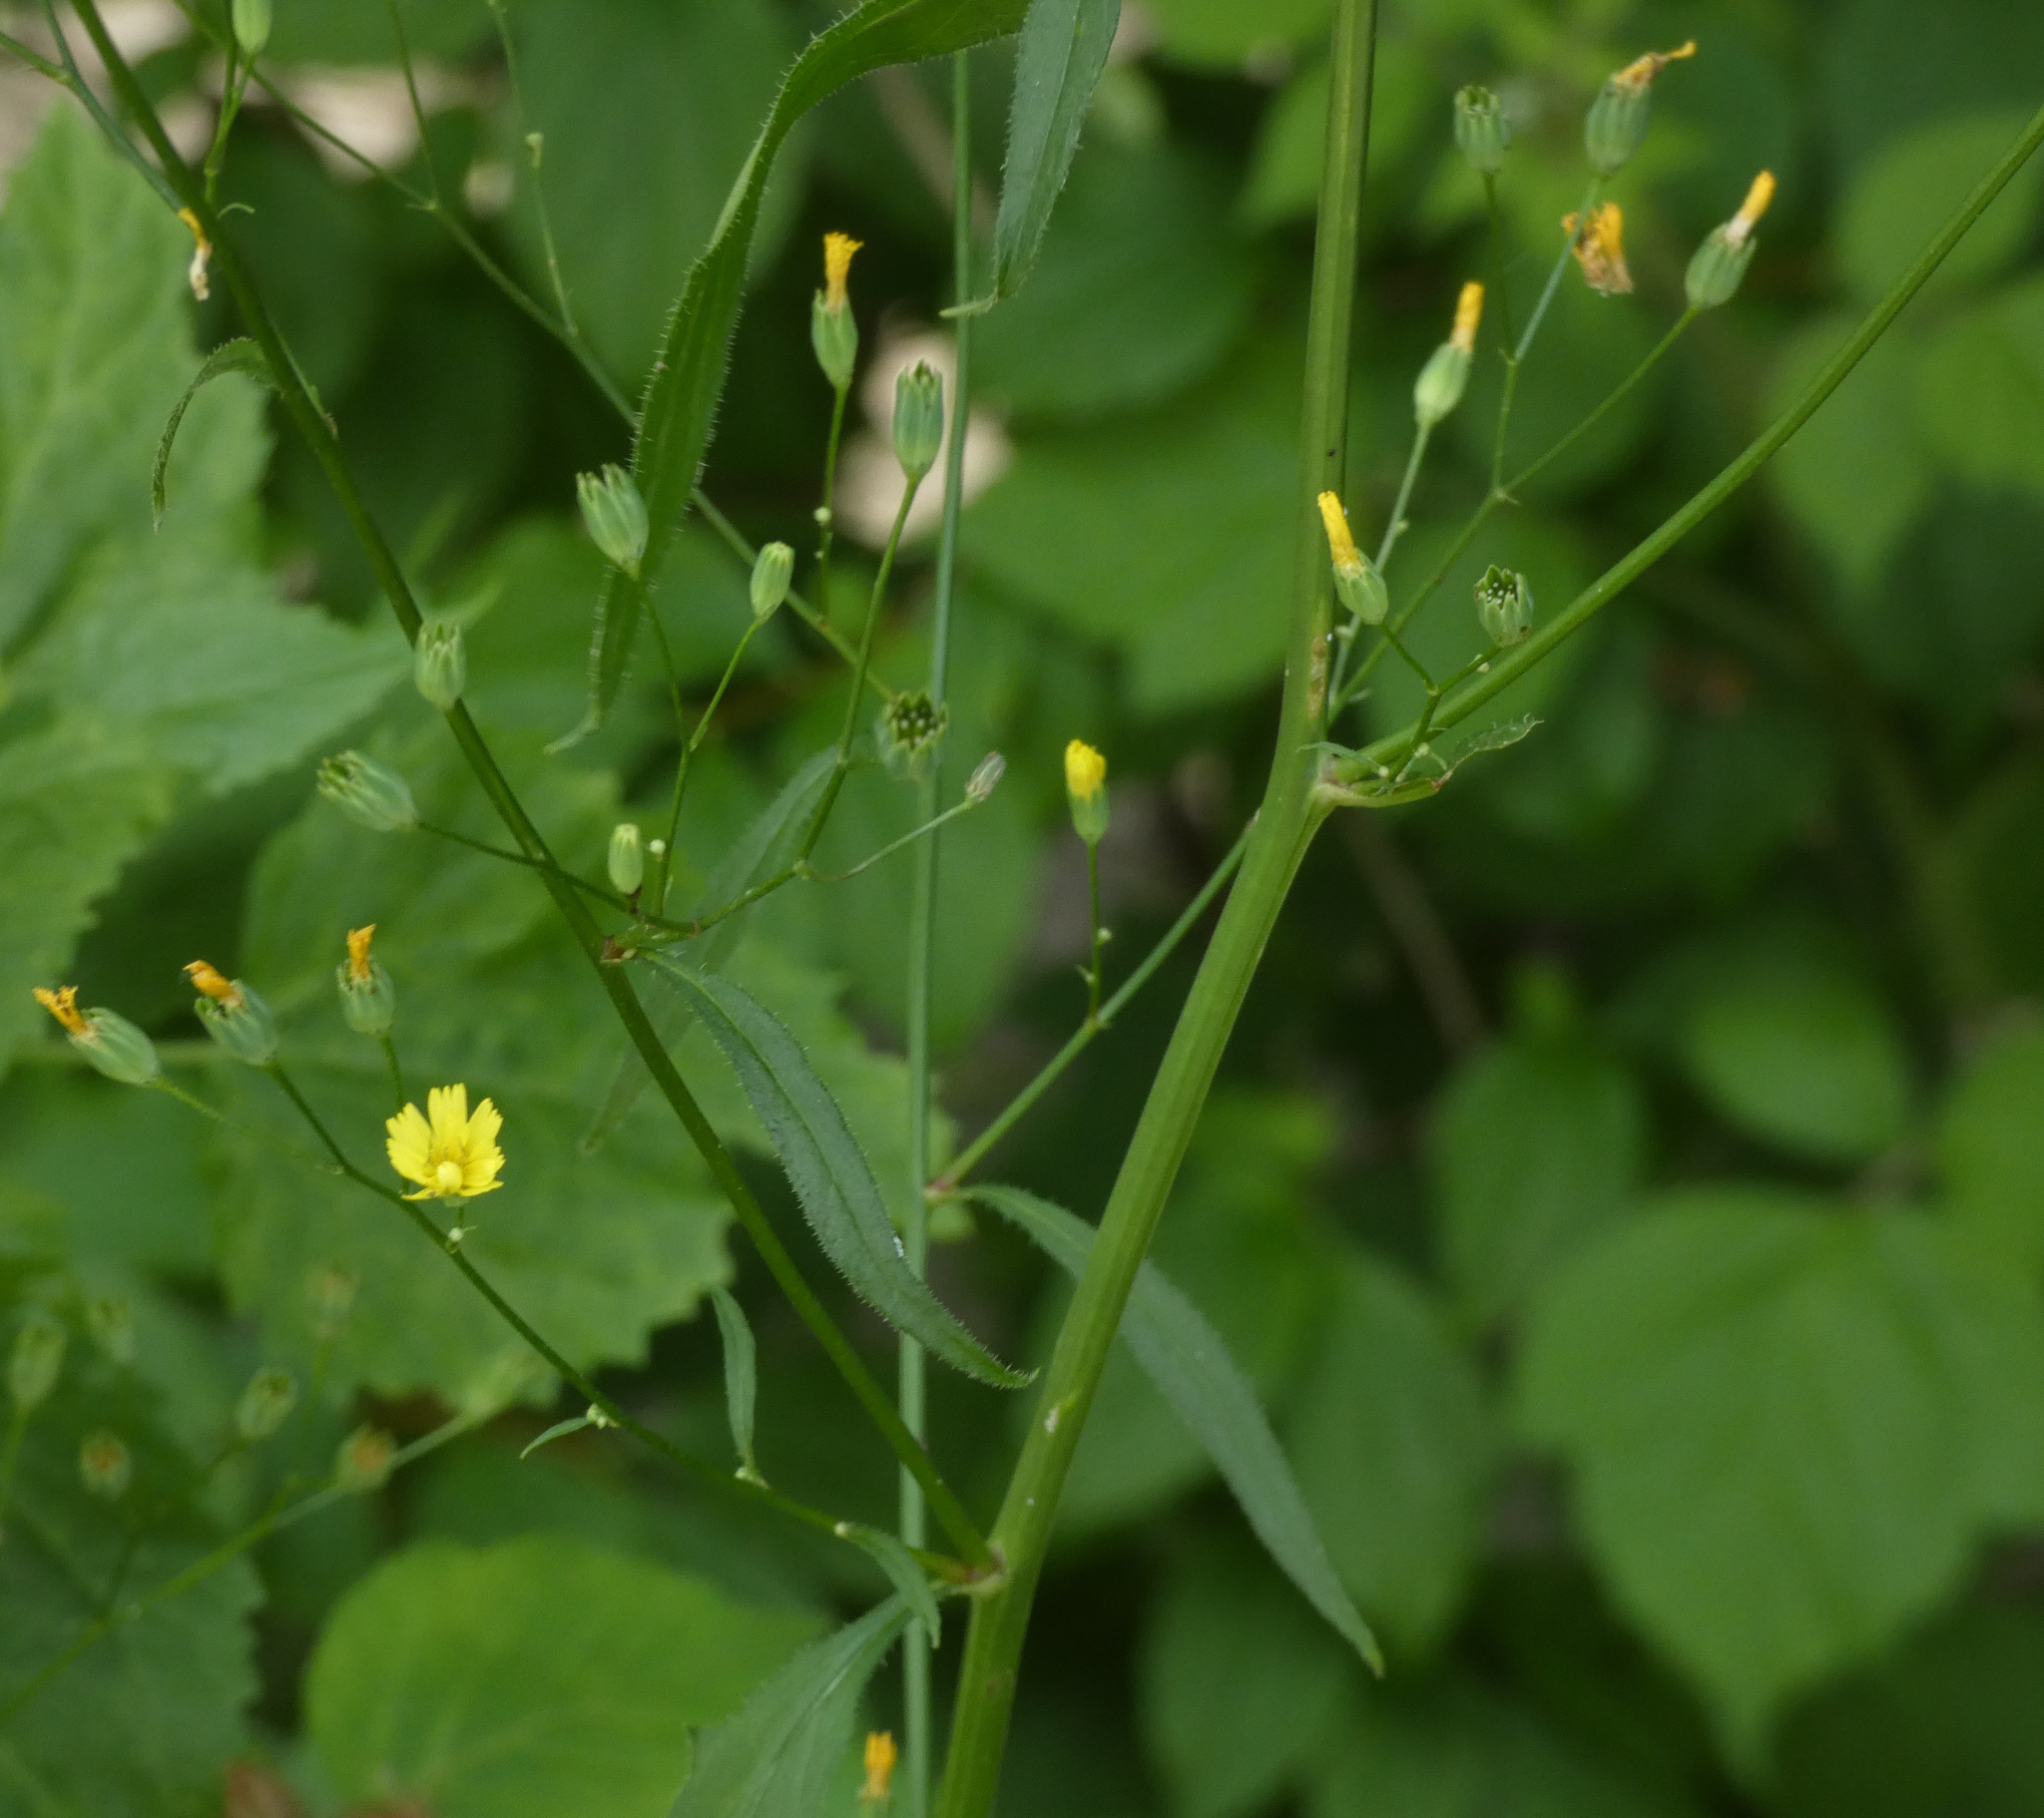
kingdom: Plantae
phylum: Tracheophyta
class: Magnoliopsida
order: Asterales
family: Asteraceae
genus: Lapsana
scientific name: Lapsana communis
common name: Nipplewort
